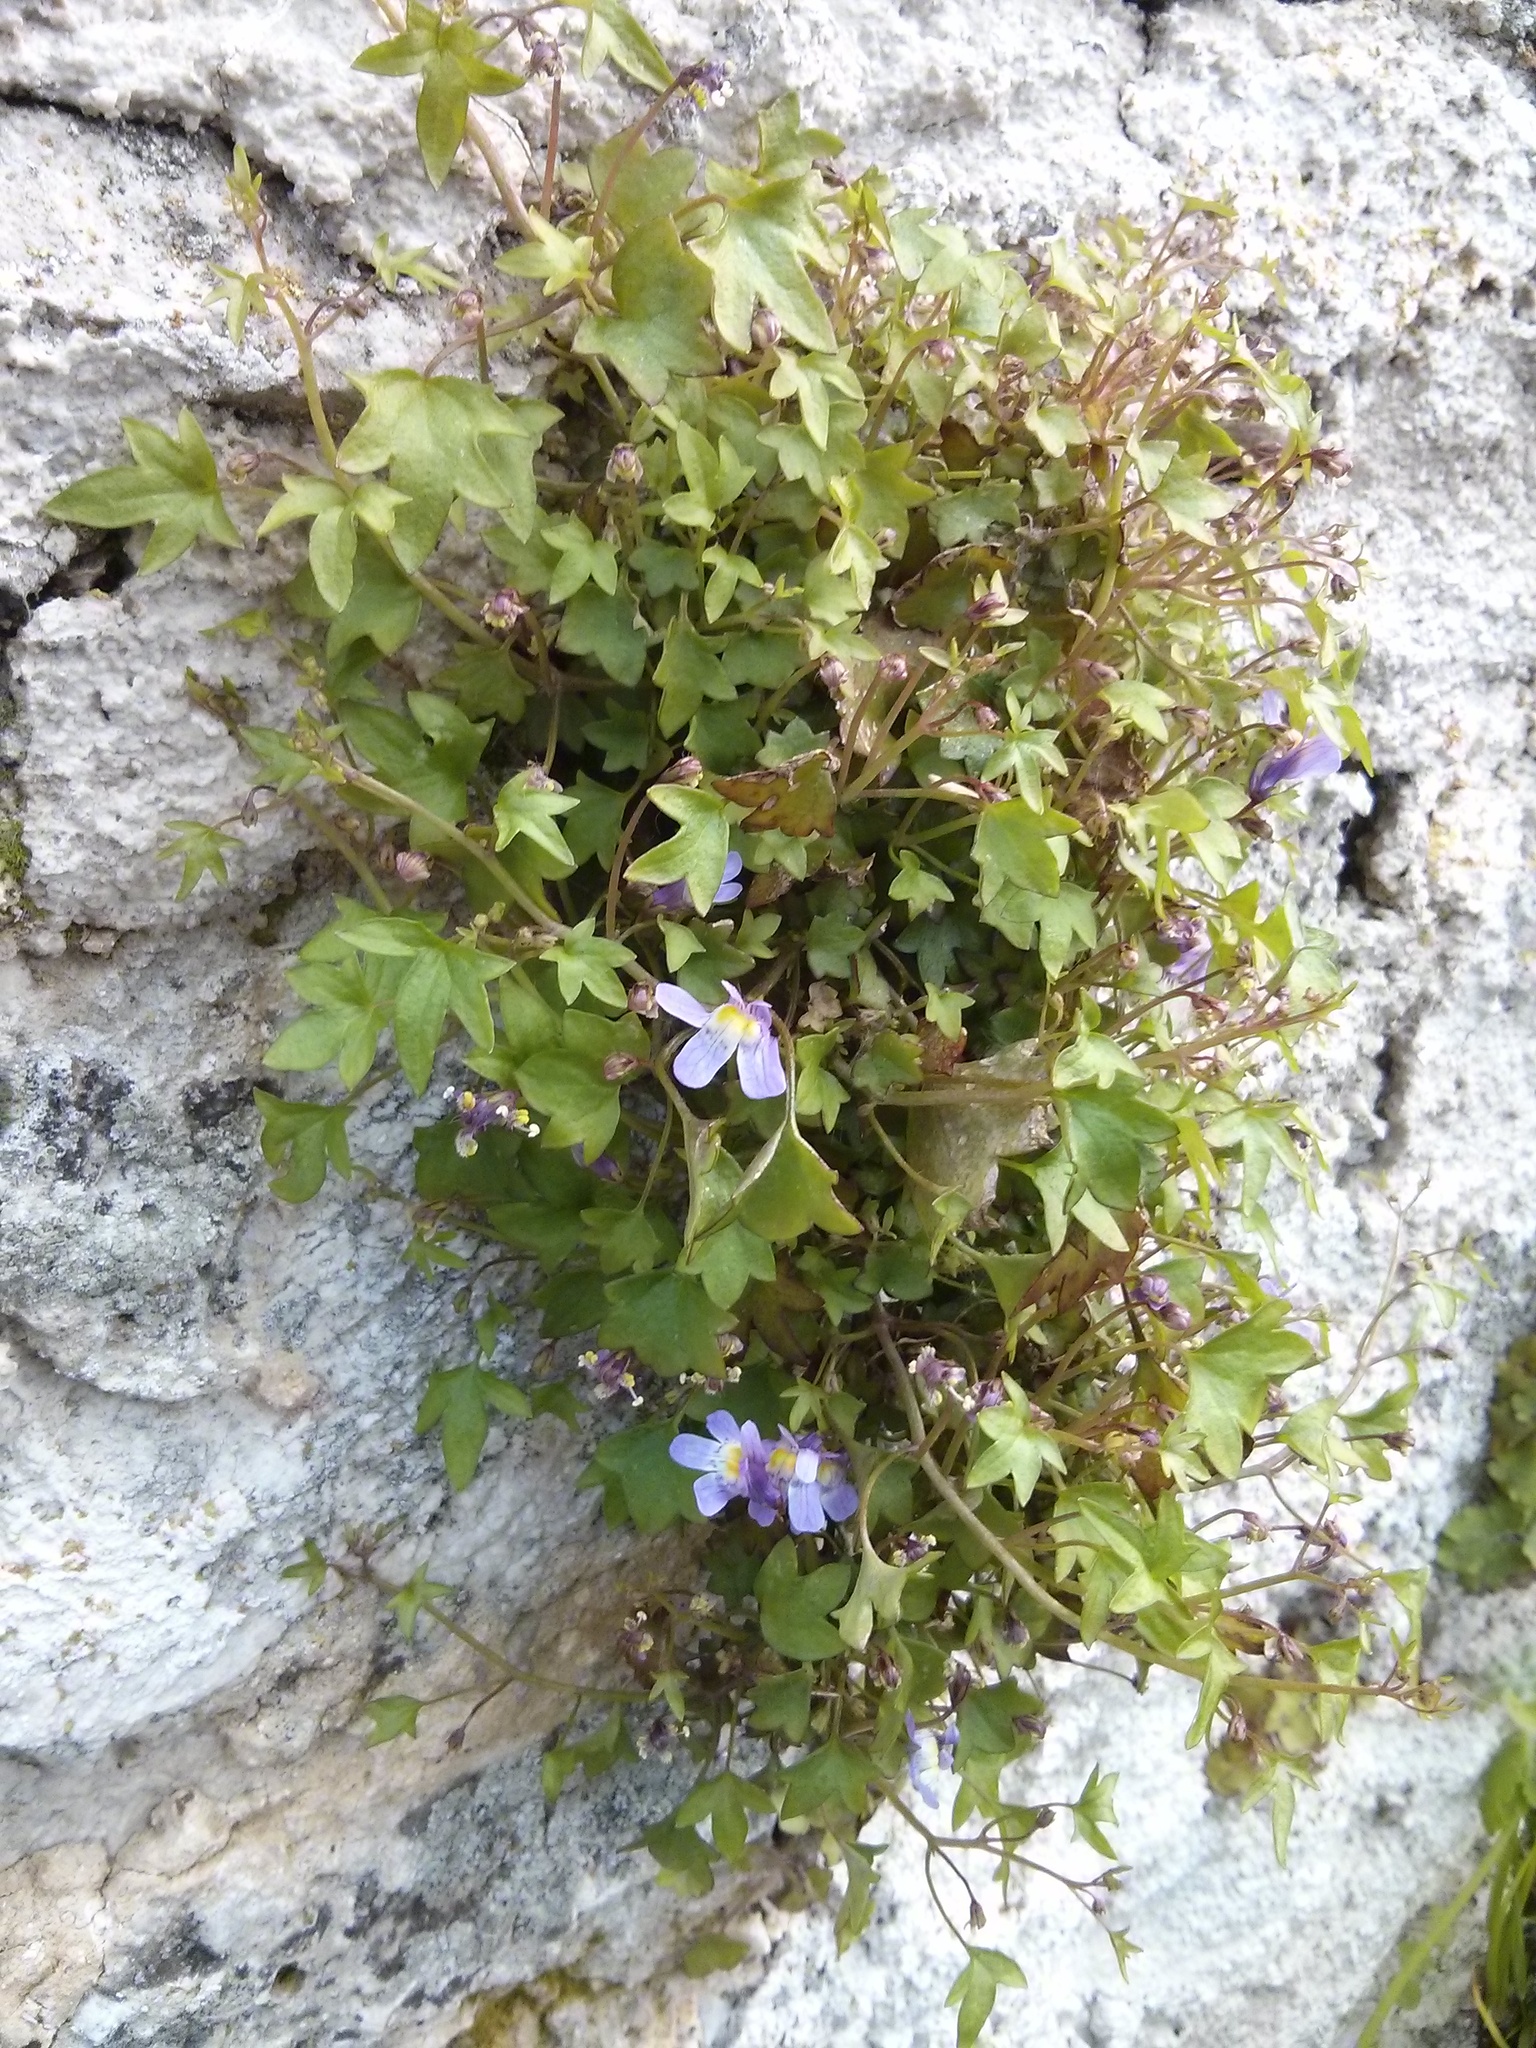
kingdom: Plantae
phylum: Tracheophyta
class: Magnoliopsida
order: Lamiales
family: Plantaginaceae
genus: Cymbalaria
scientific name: Cymbalaria muralis
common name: Ivy-leaved toadflax
